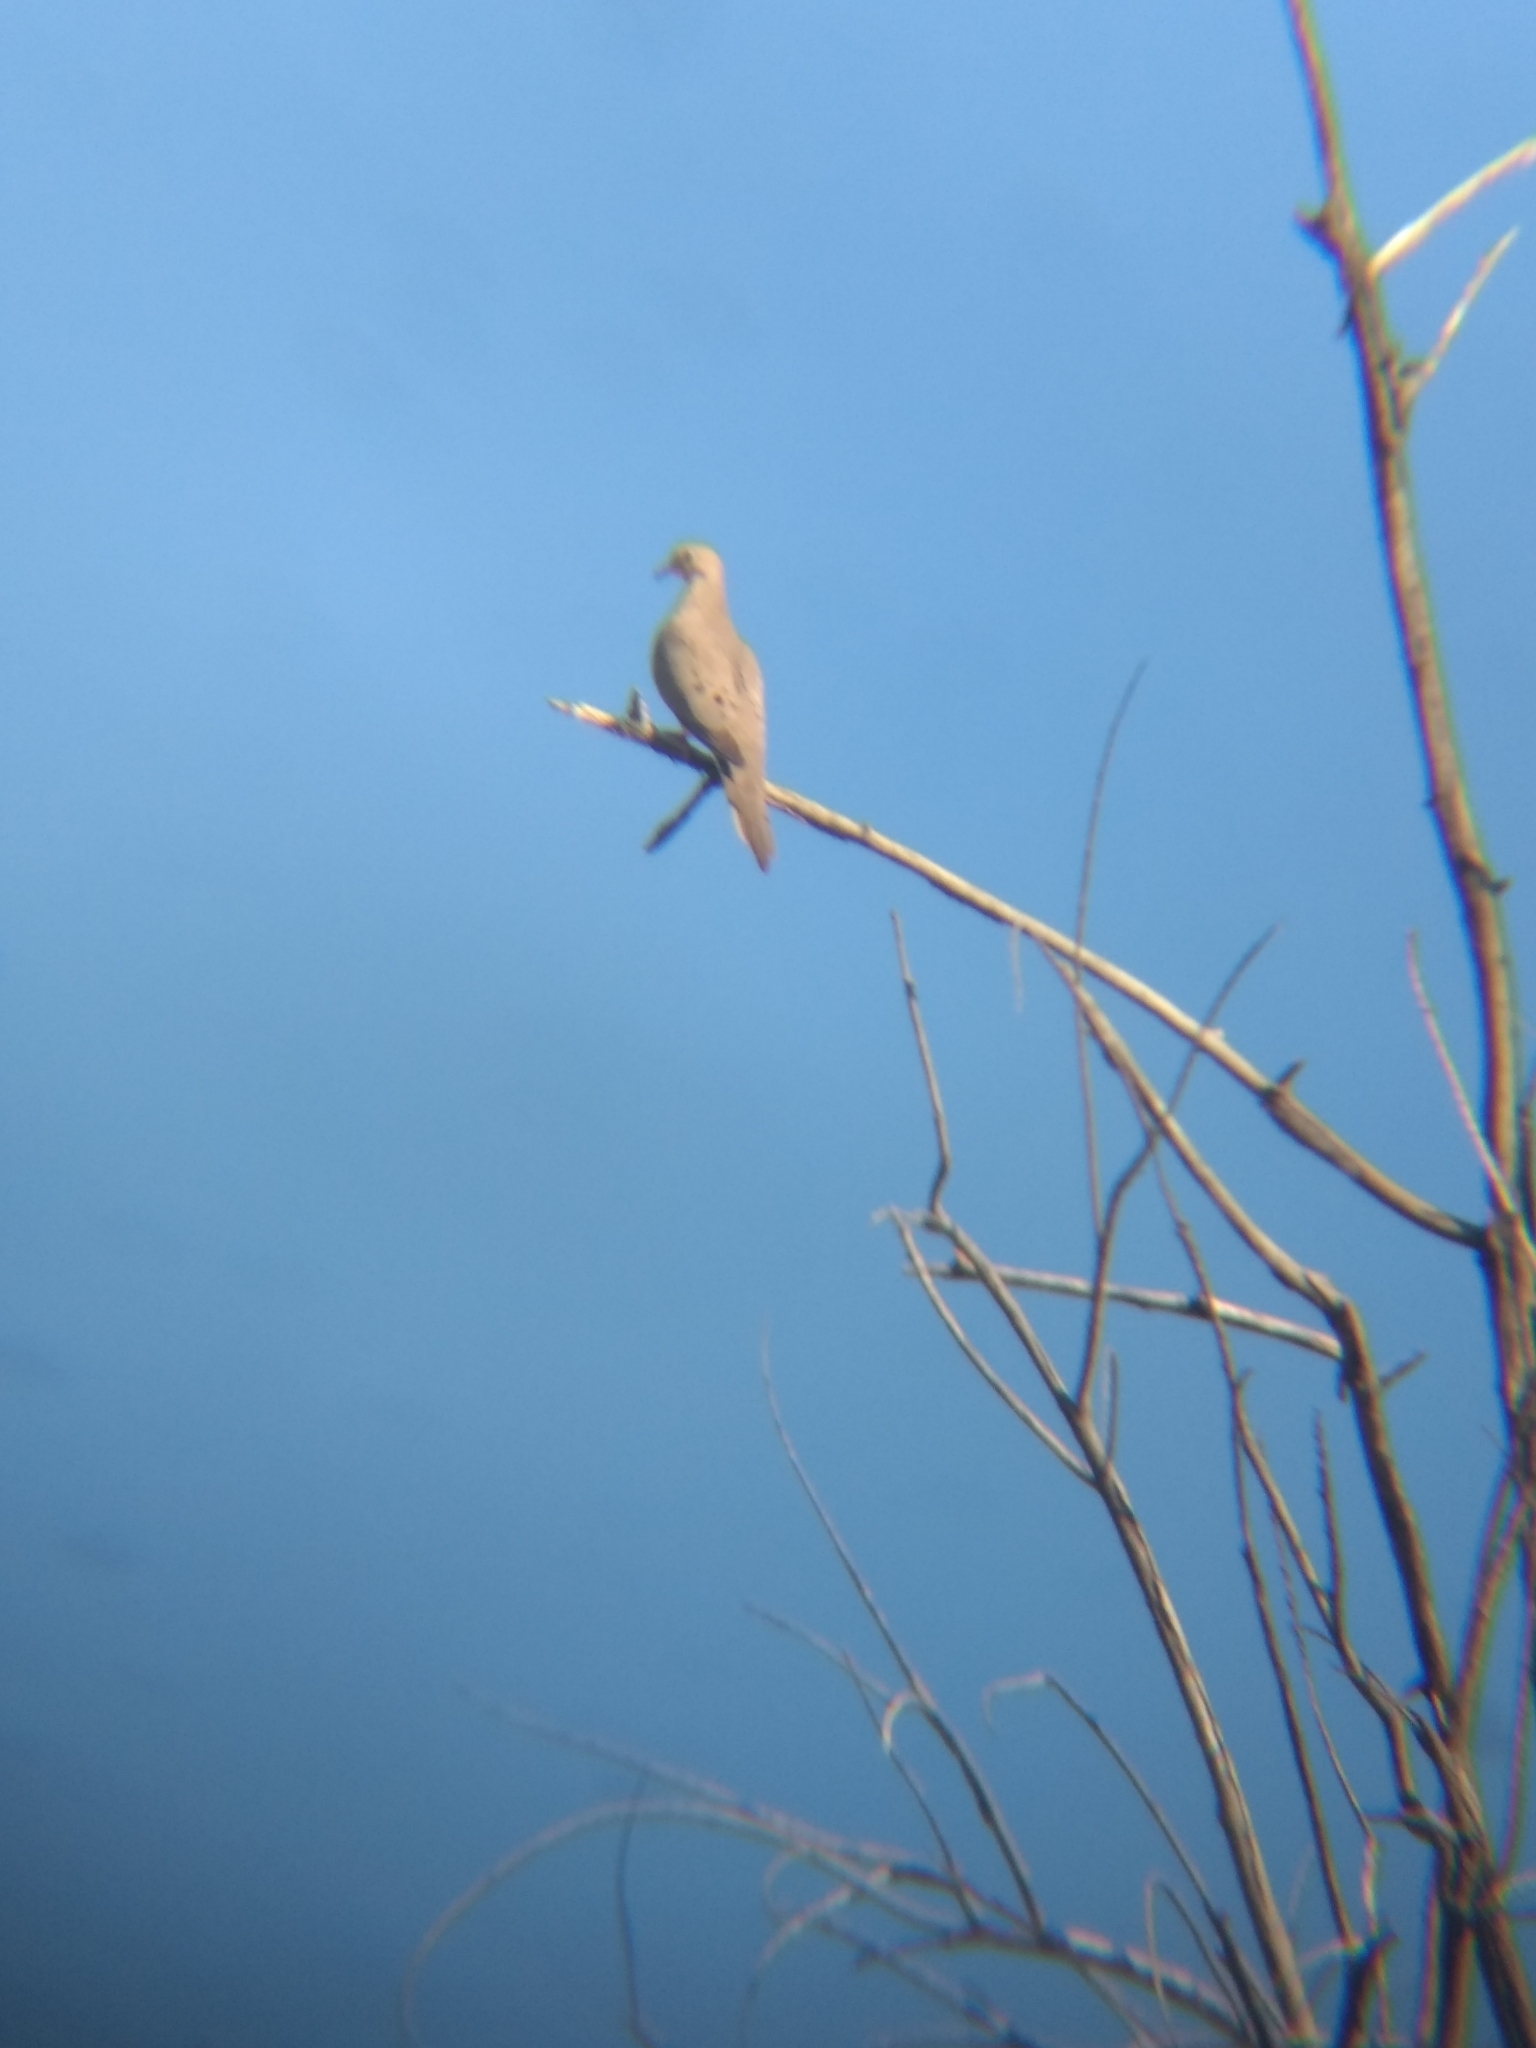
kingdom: Animalia
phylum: Chordata
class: Aves
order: Columbiformes
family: Columbidae
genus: Zenaida
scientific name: Zenaida macroura
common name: Mourning dove
